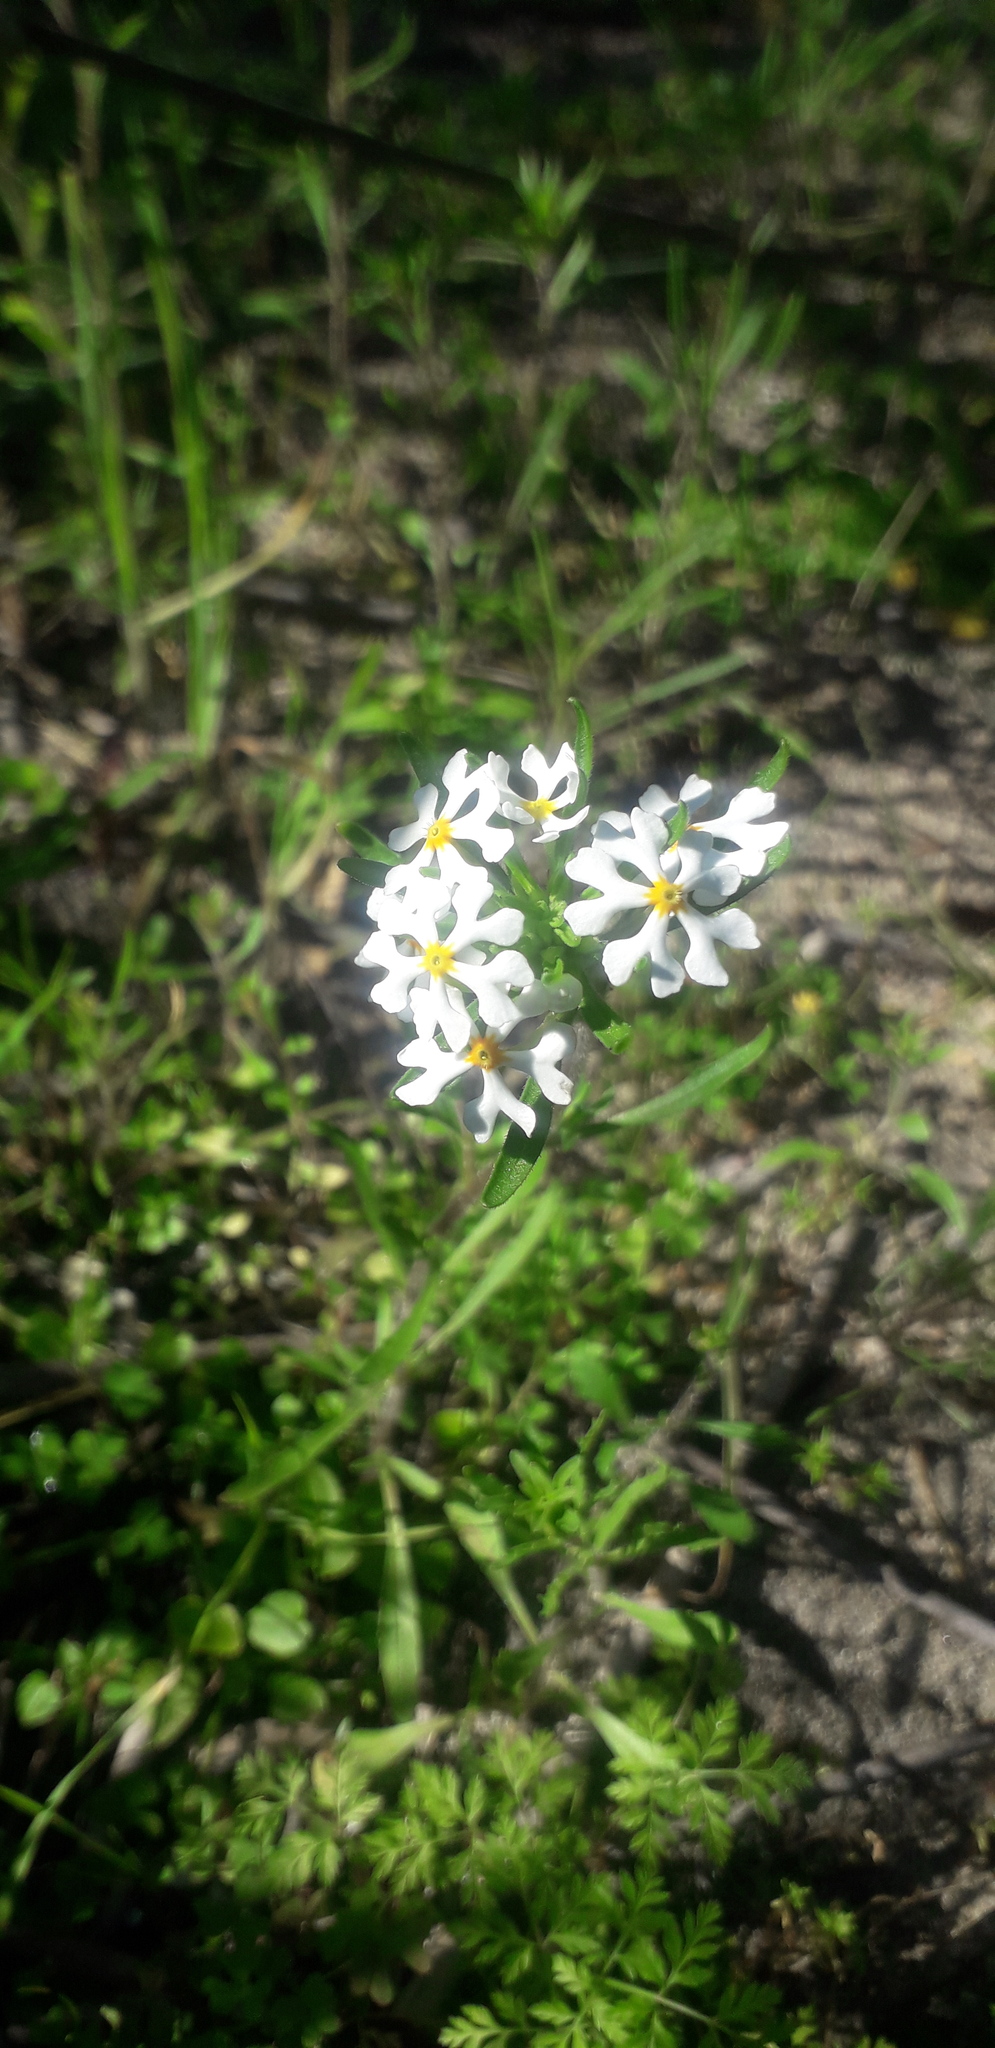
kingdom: Plantae
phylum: Tracheophyta
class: Magnoliopsida
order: Lamiales
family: Scrophulariaceae
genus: Zaluzianskya
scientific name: Zaluzianskya villosa
